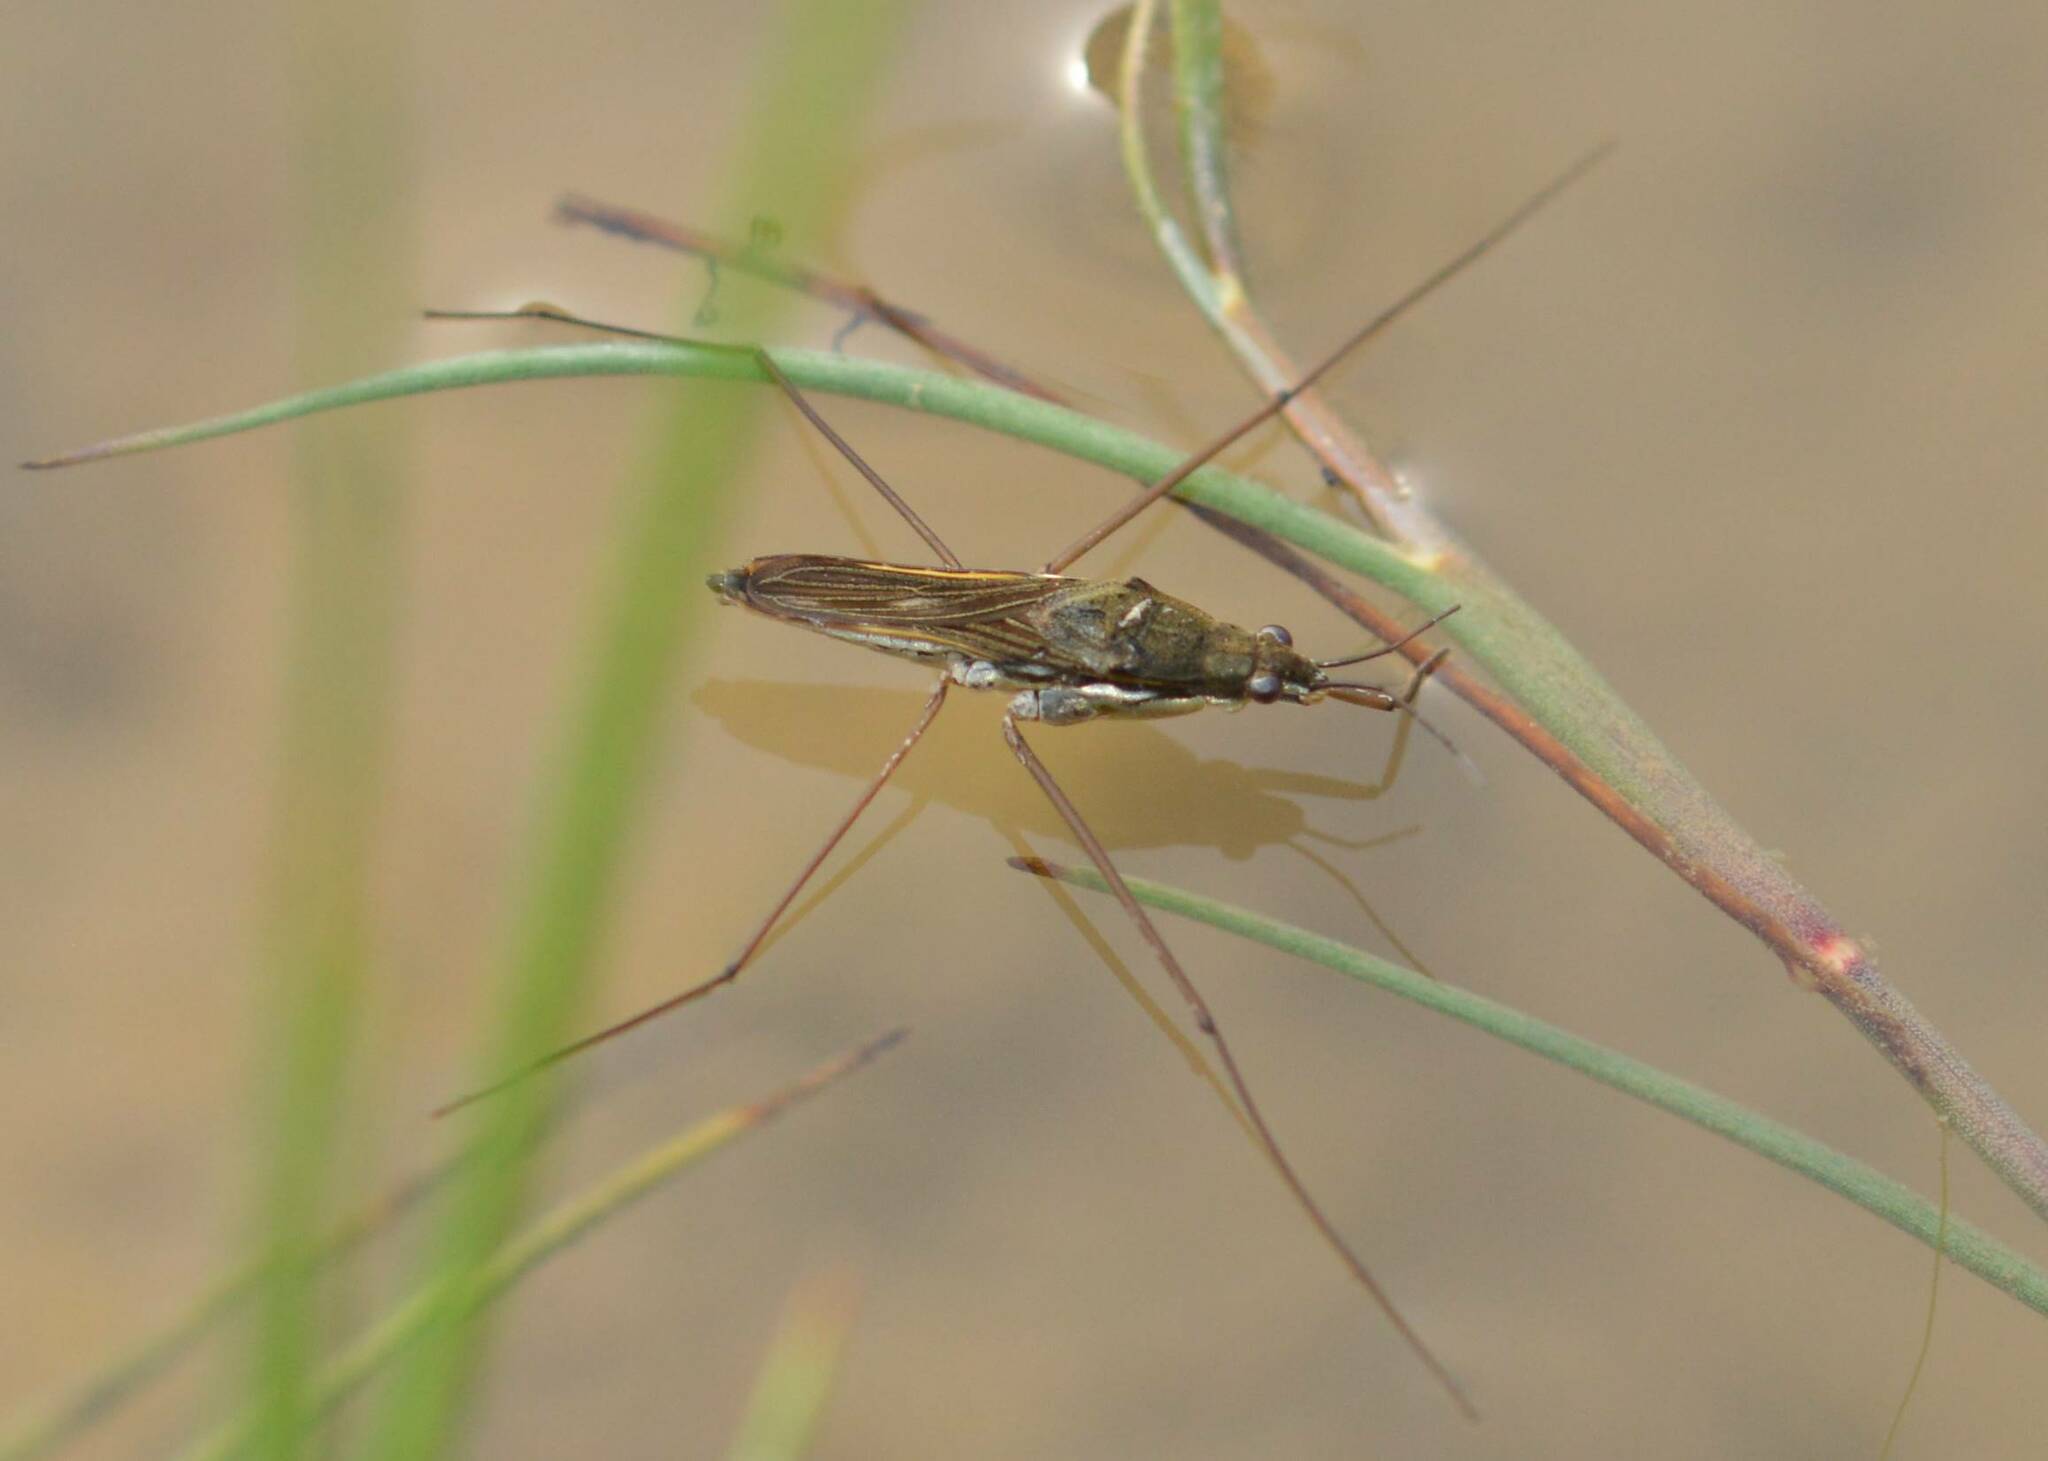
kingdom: Animalia
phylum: Arthropoda
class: Insecta
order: Hemiptera
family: Gerridae
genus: Gerris
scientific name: Gerris
